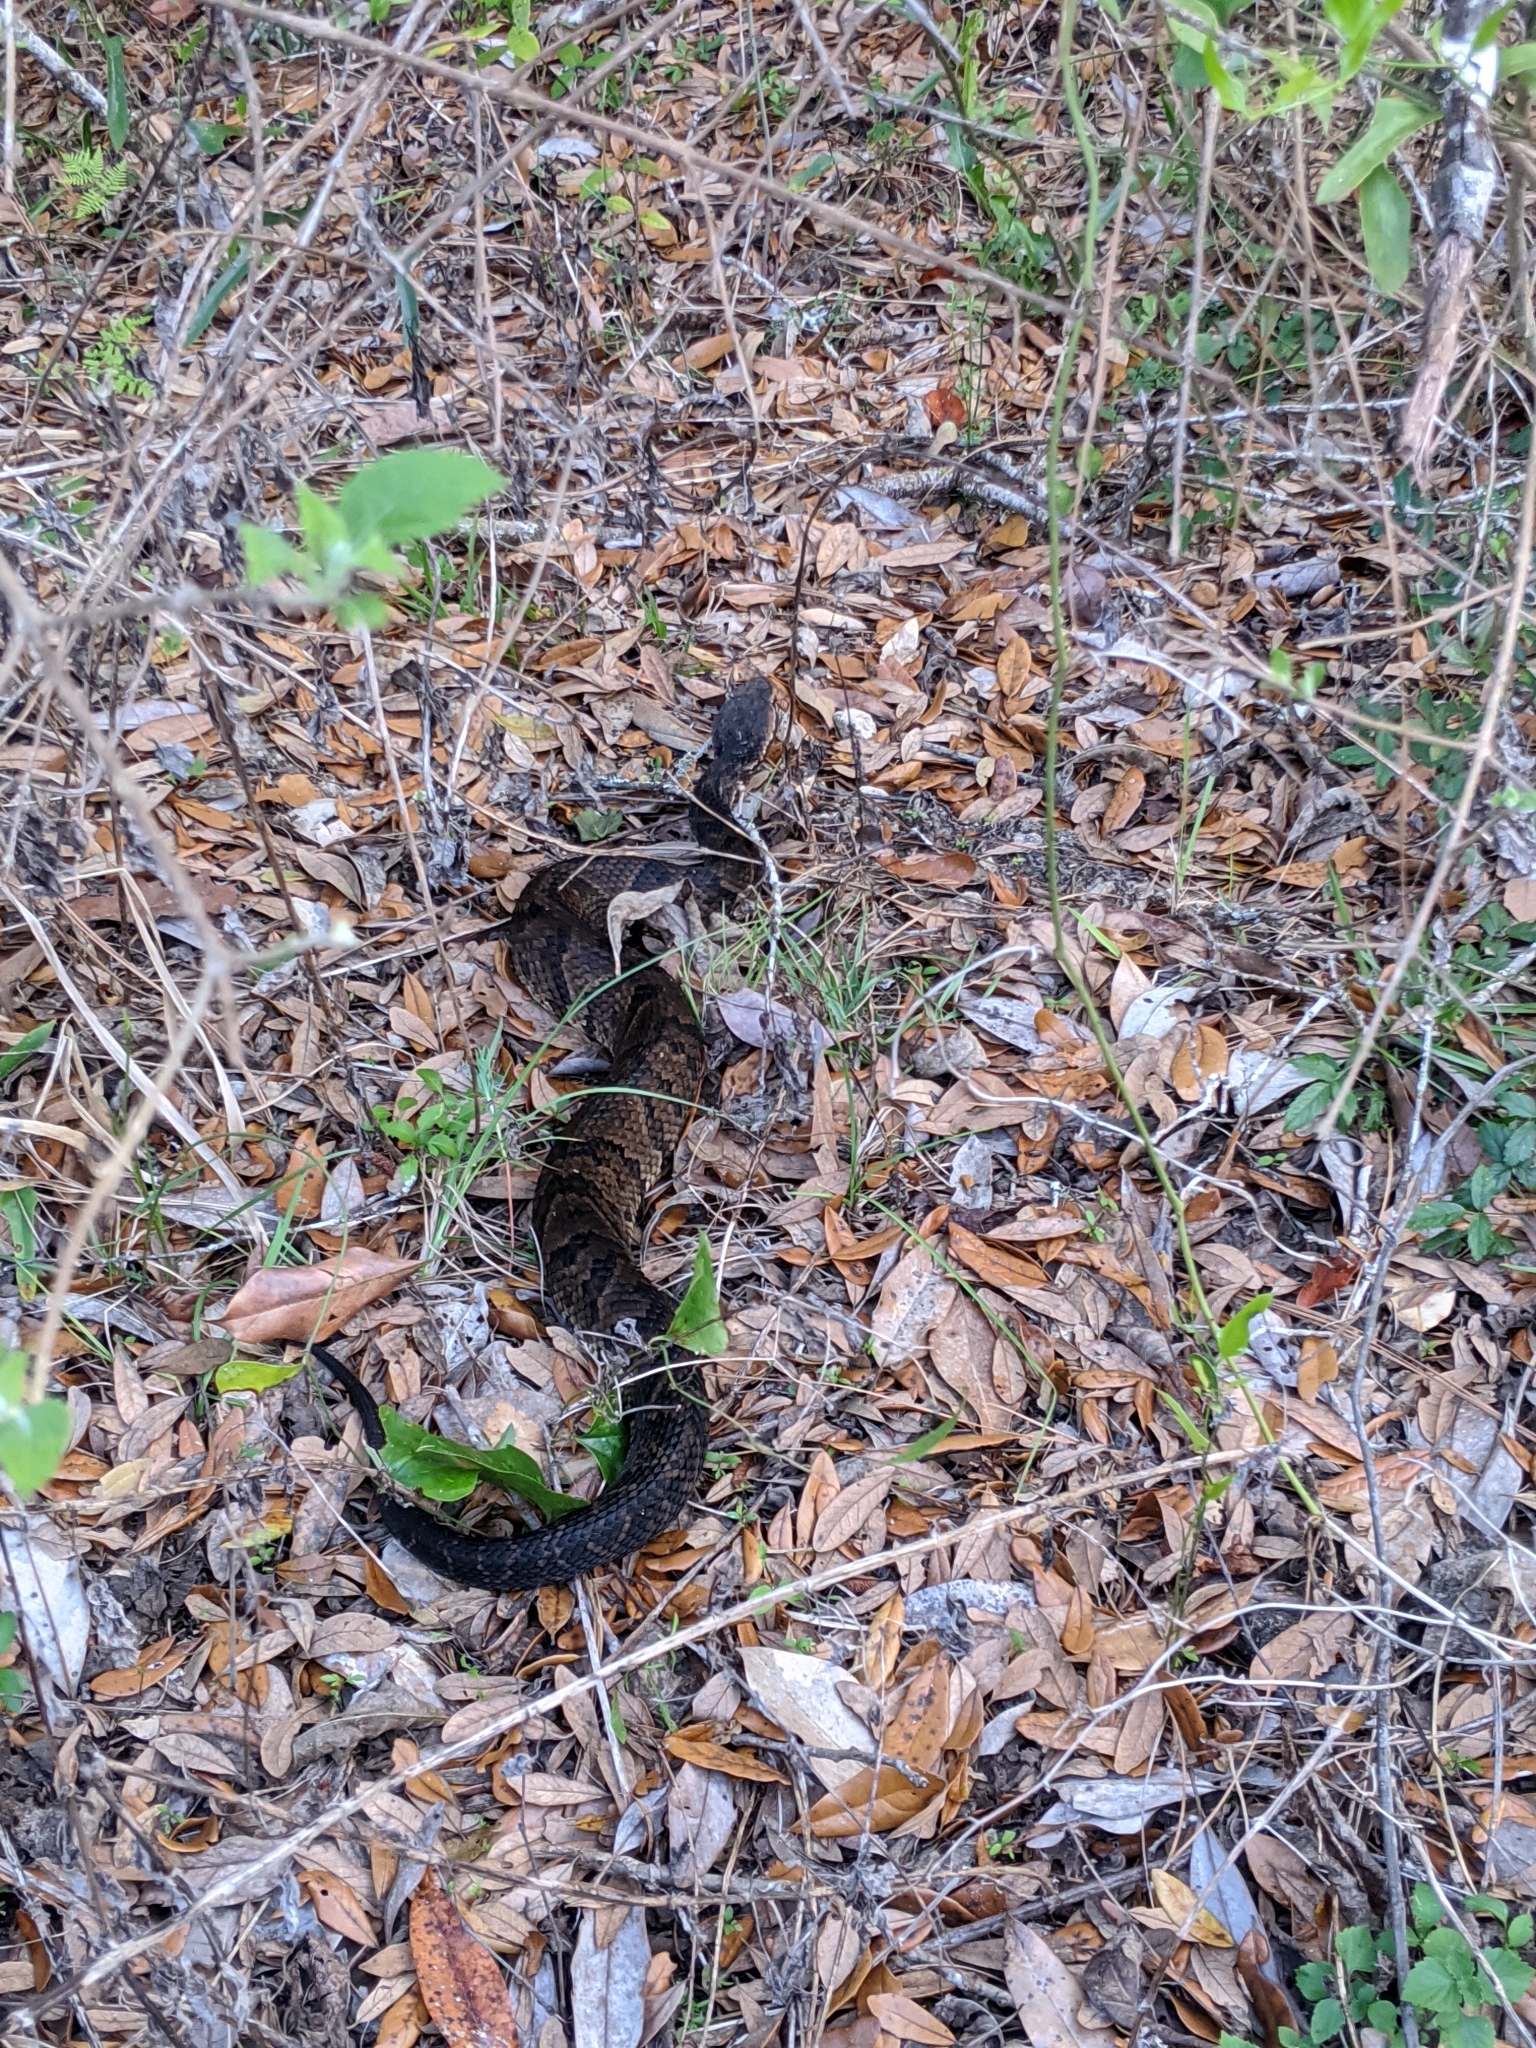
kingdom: Animalia
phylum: Chordata
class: Squamata
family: Viperidae
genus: Agkistrodon
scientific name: Agkistrodon conanti
